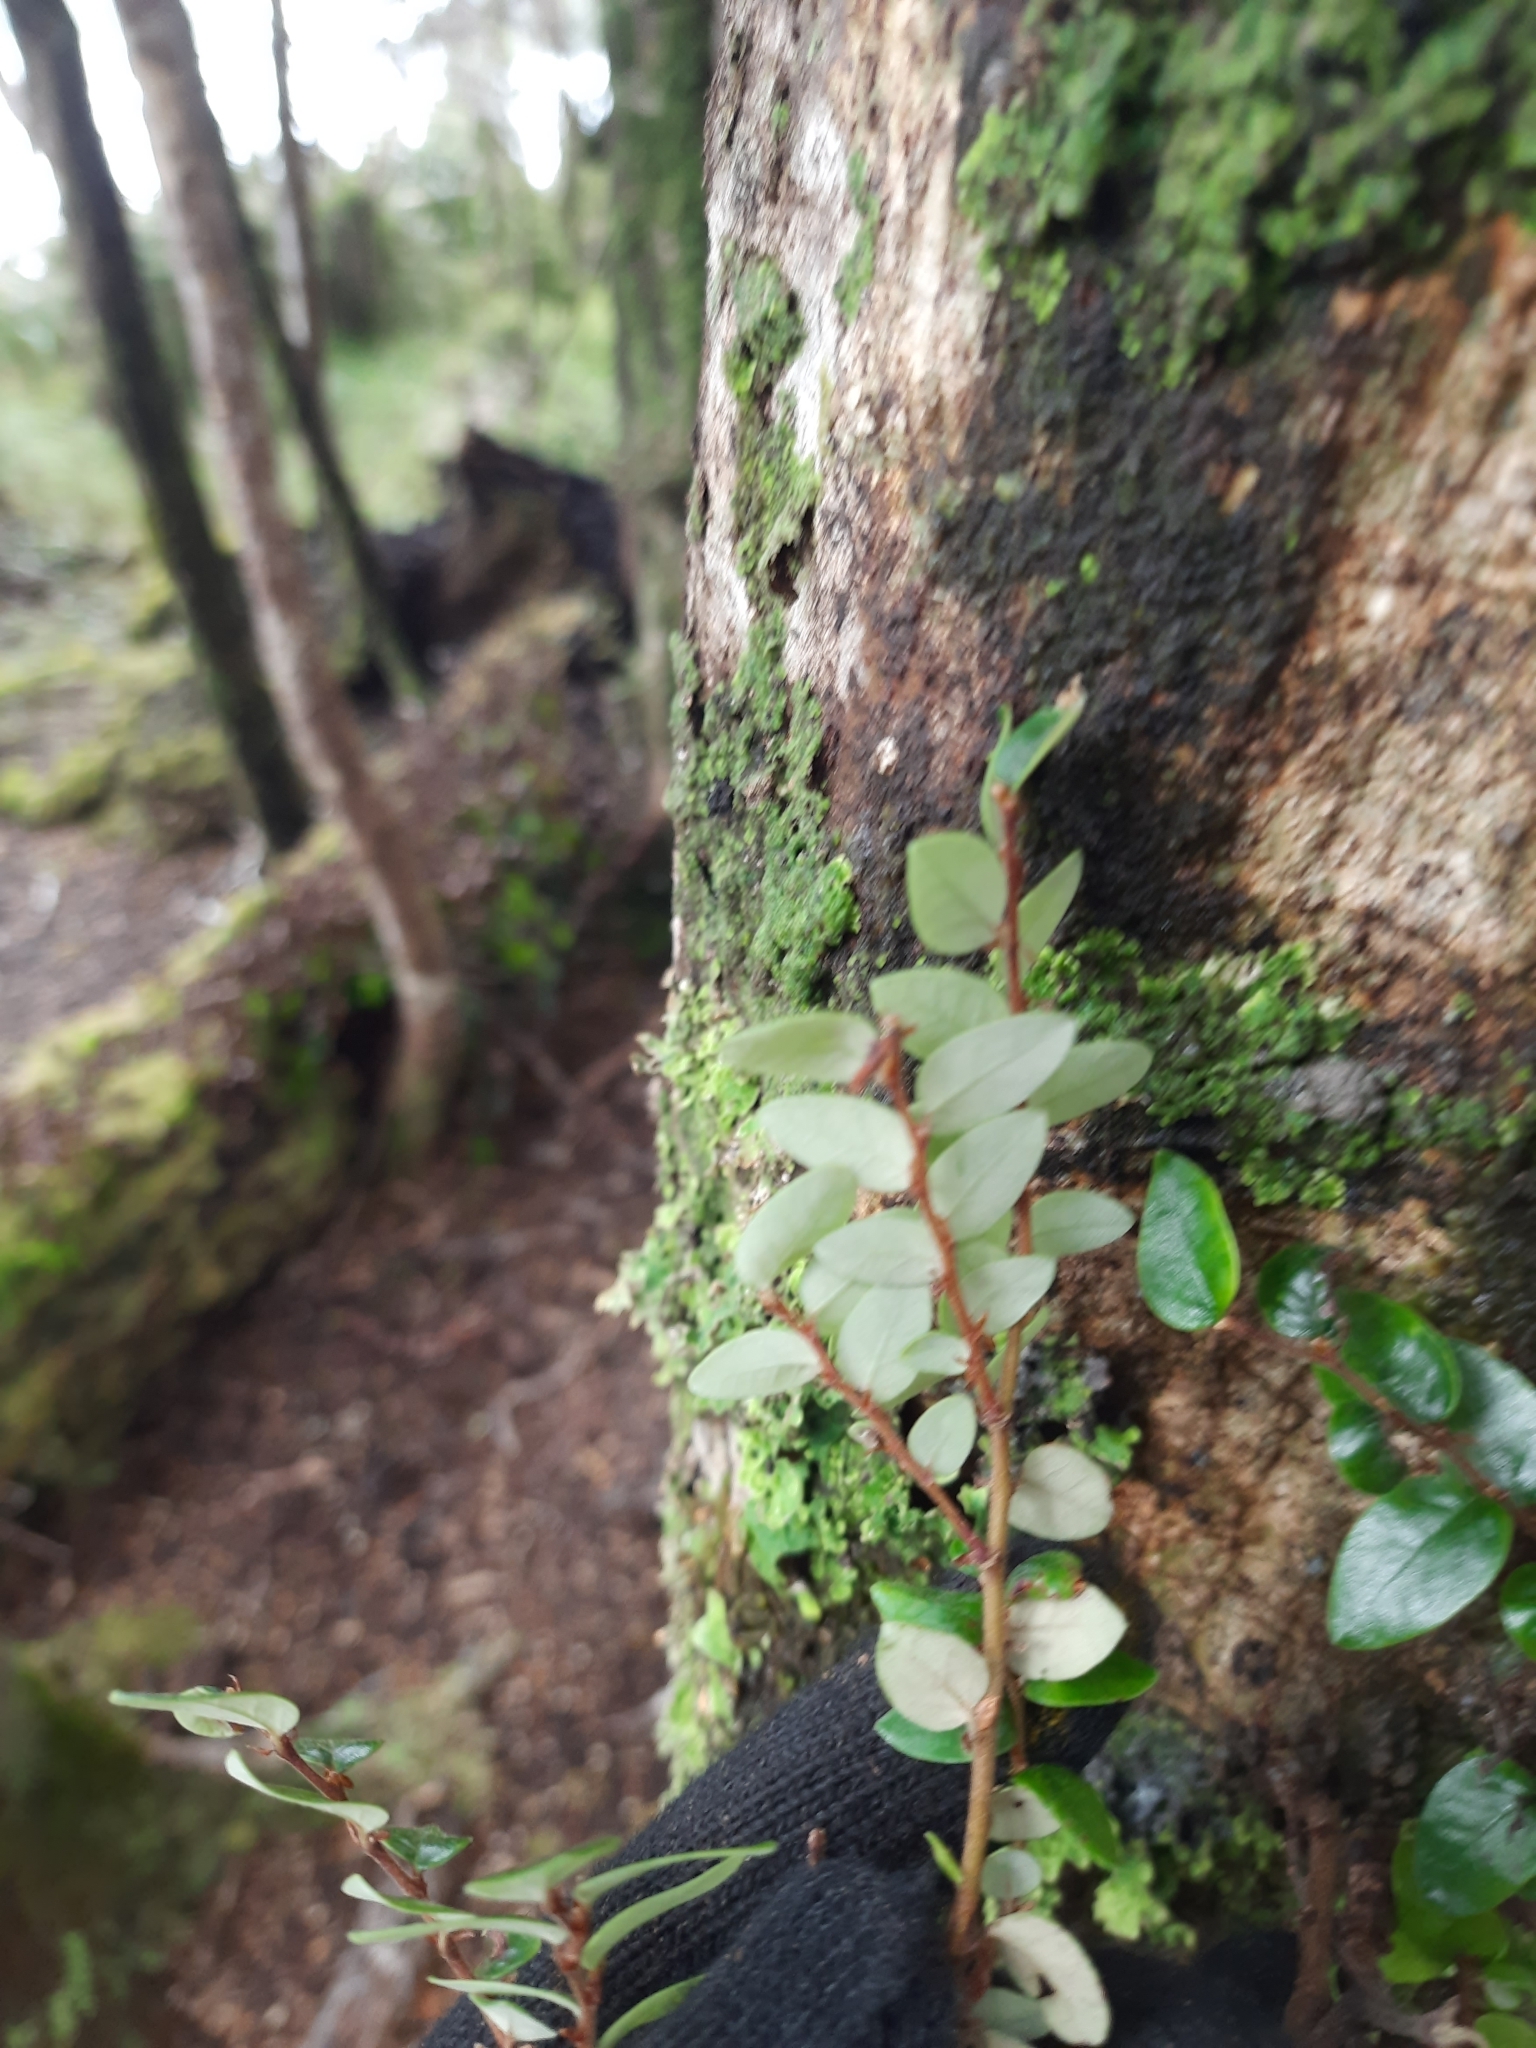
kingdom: Plantae
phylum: Tracheophyta
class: Magnoliopsida
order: Fagales
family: Nothofagaceae
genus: Nothofagus
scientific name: Nothofagus cliffortioides
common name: Mountain beech
